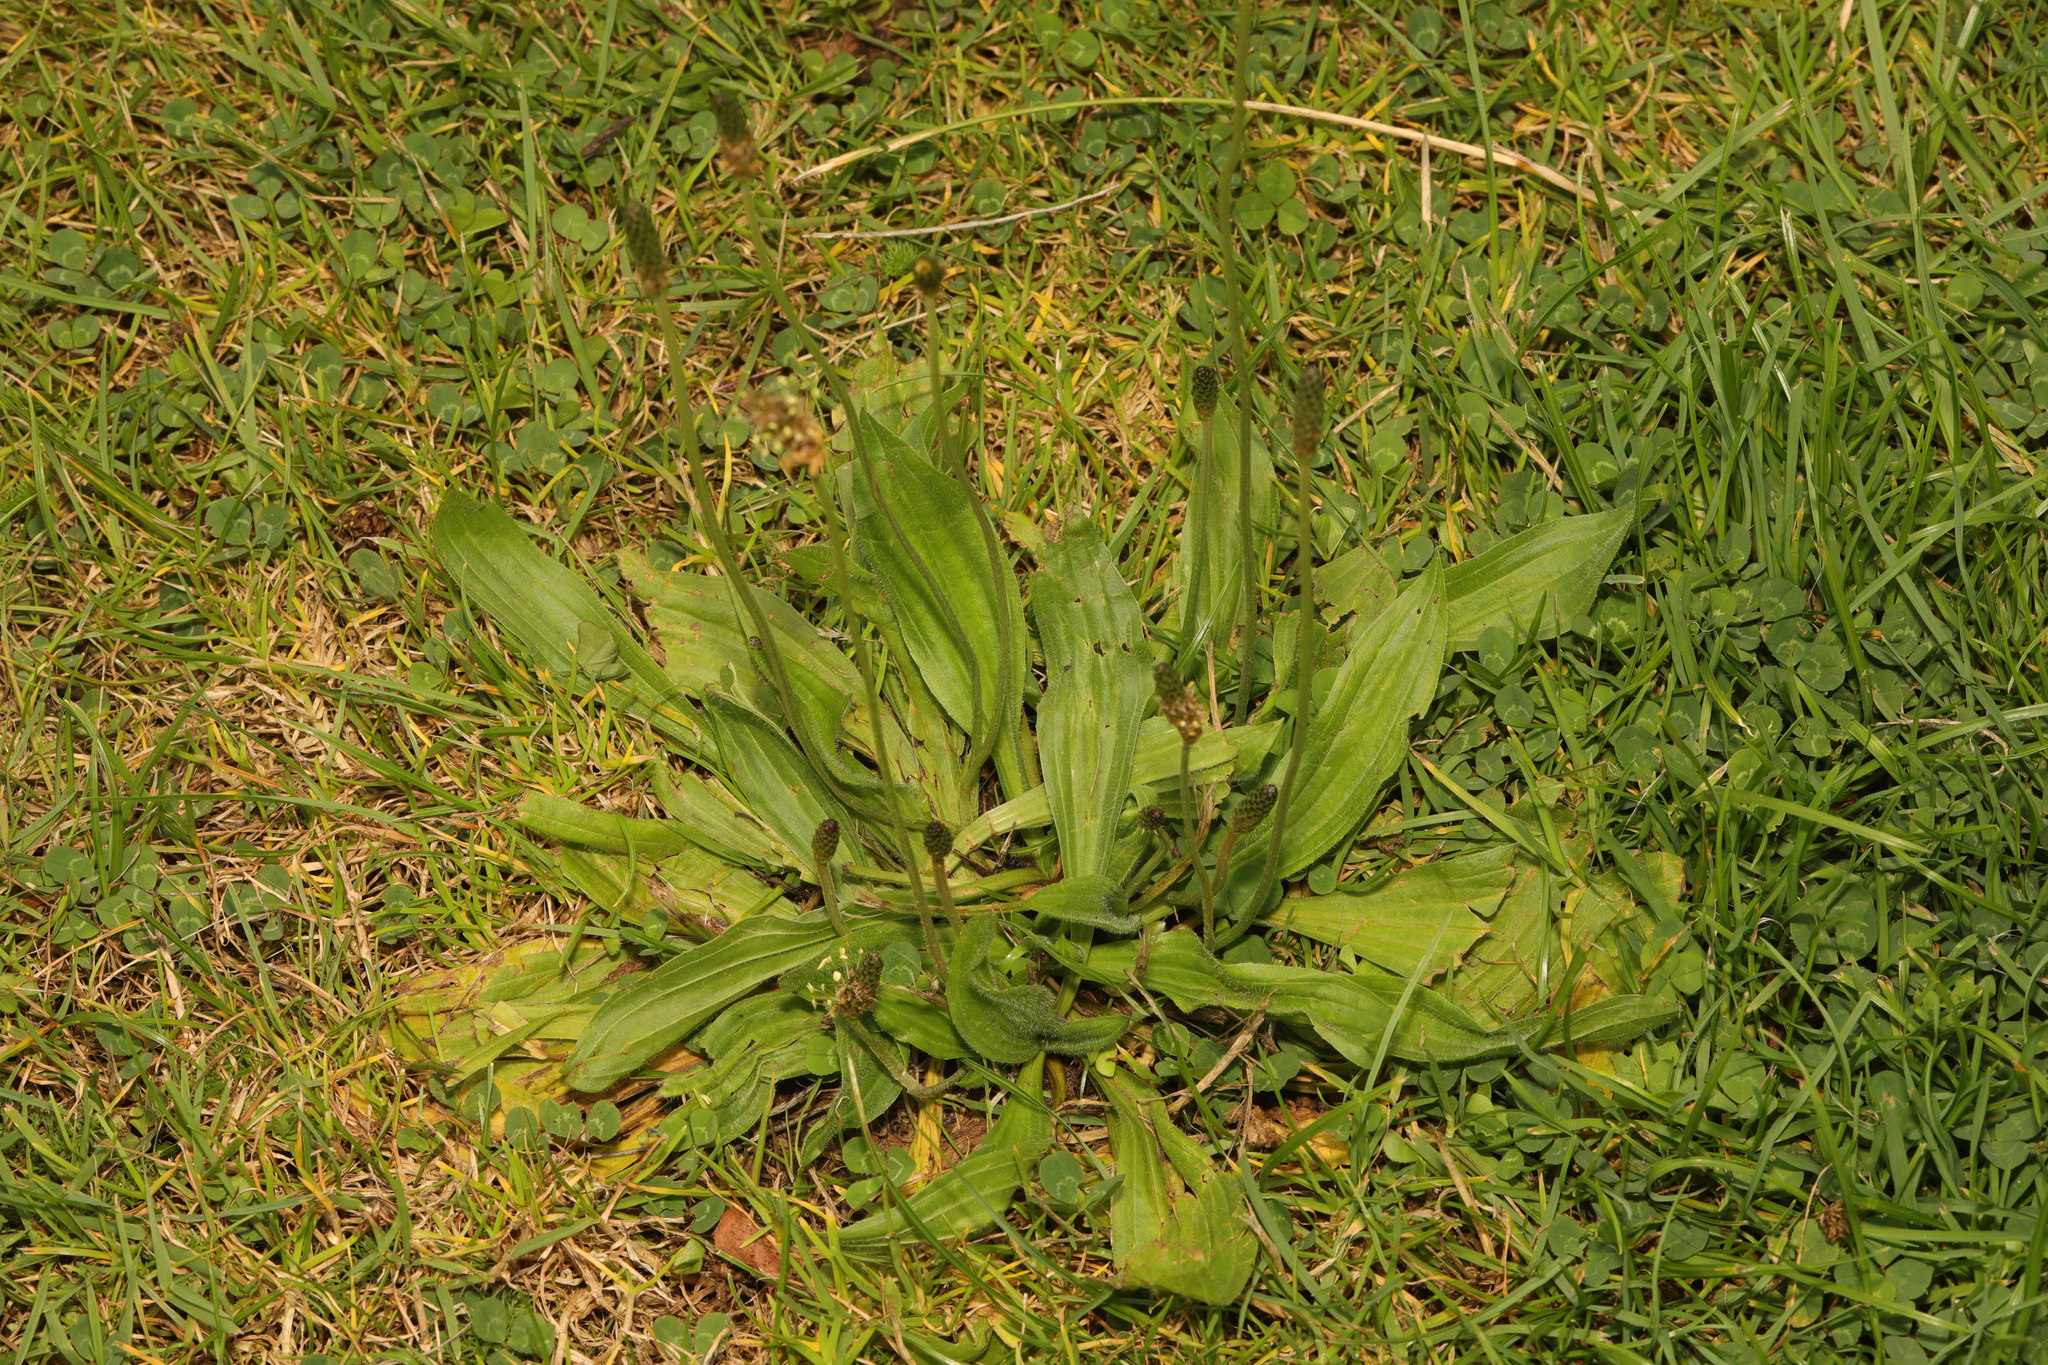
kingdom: Plantae
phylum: Tracheophyta
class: Magnoliopsida
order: Lamiales
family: Plantaginaceae
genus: Plantago
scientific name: Plantago lanceolata
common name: Ribwort plantain
